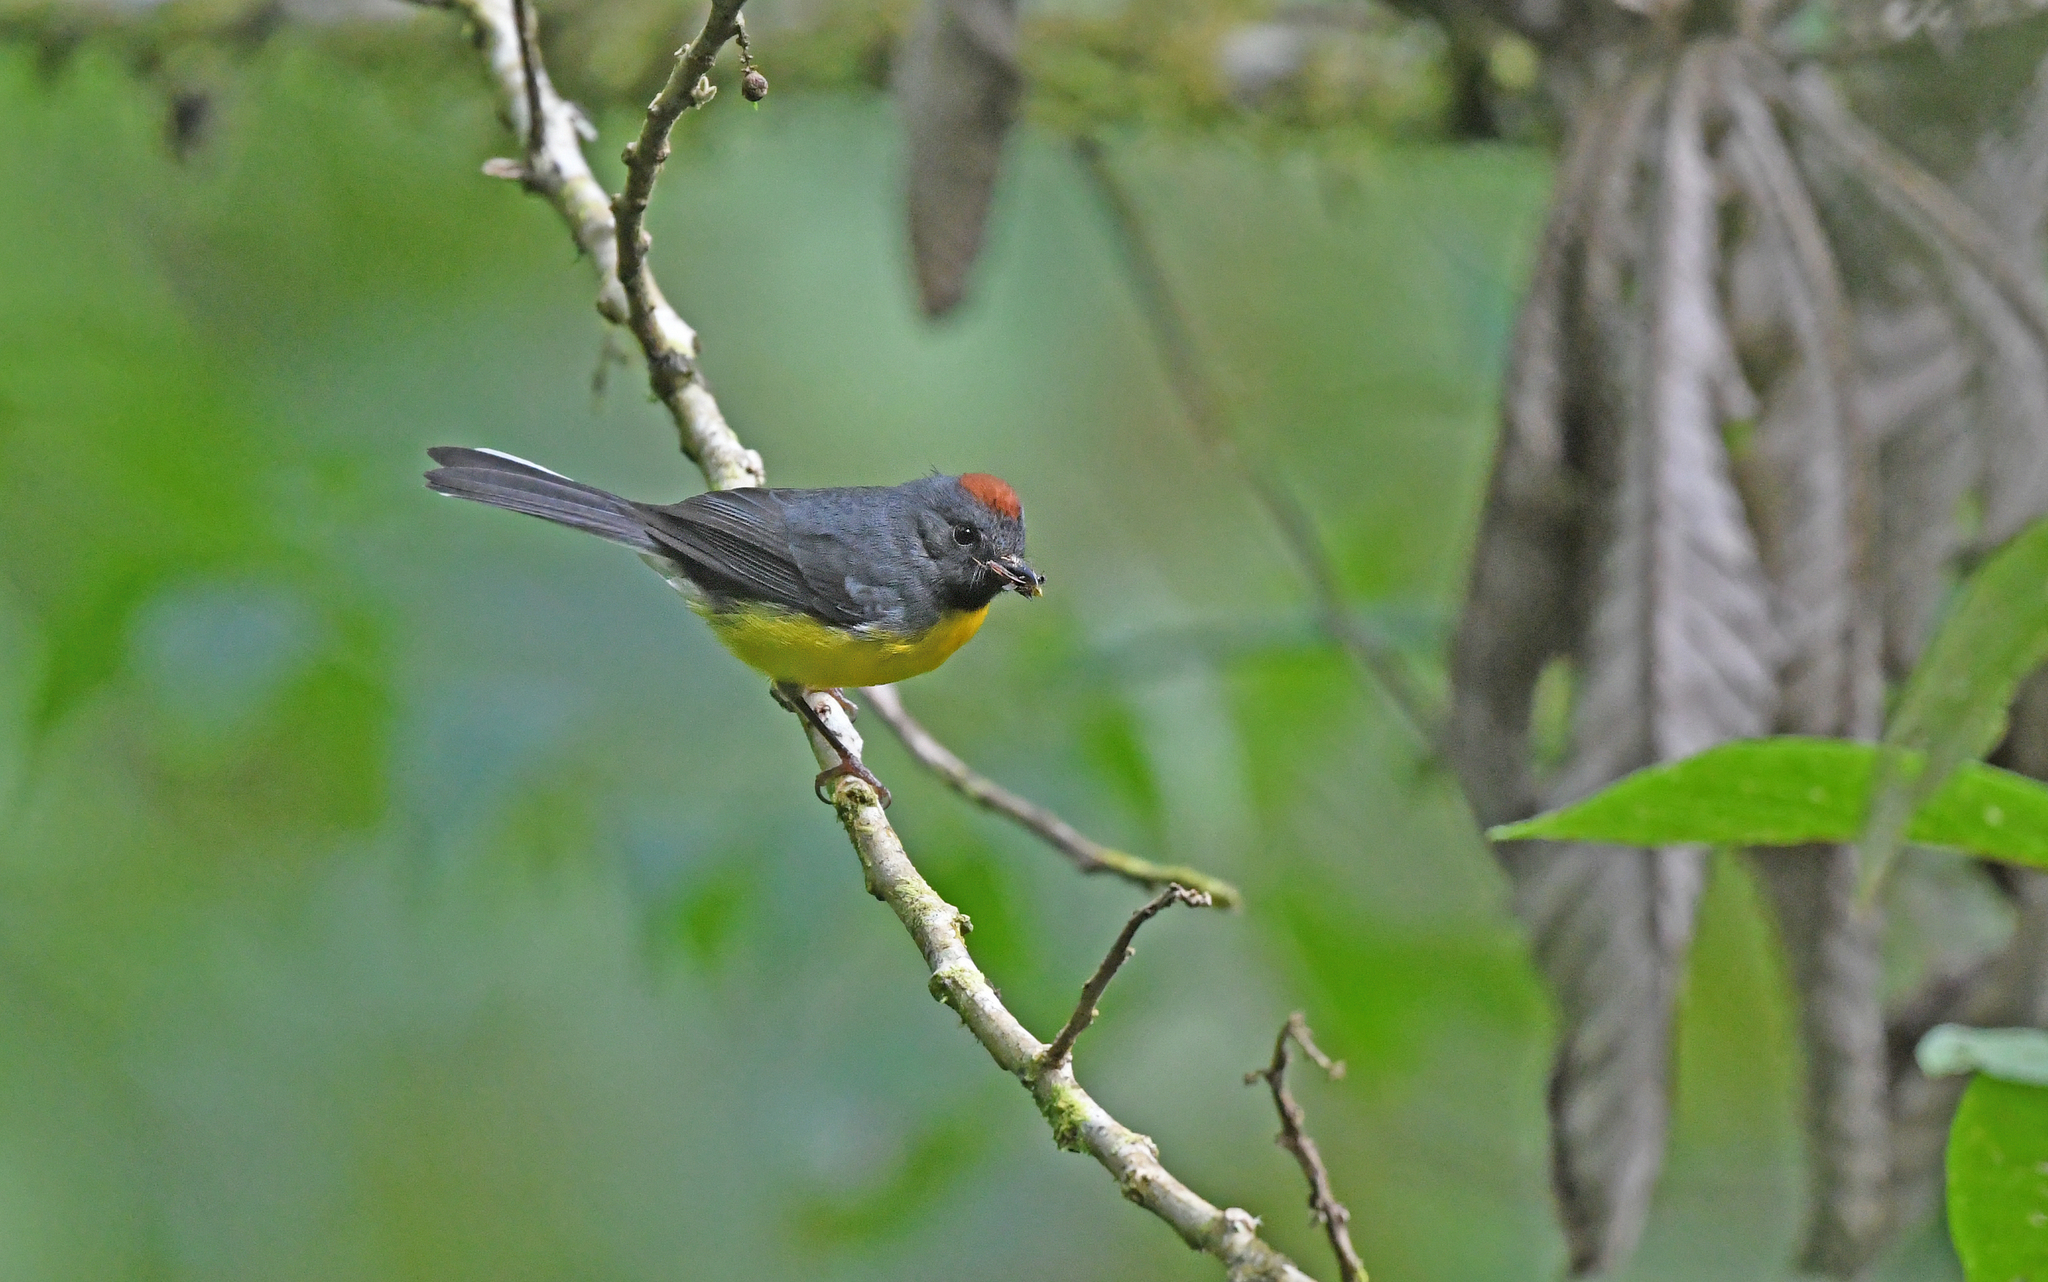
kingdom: Animalia
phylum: Chordata
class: Aves
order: Passeriformes
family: Parulidae
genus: Myioborus
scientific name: Myioborus miniatus
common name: Slate-throated redstart
